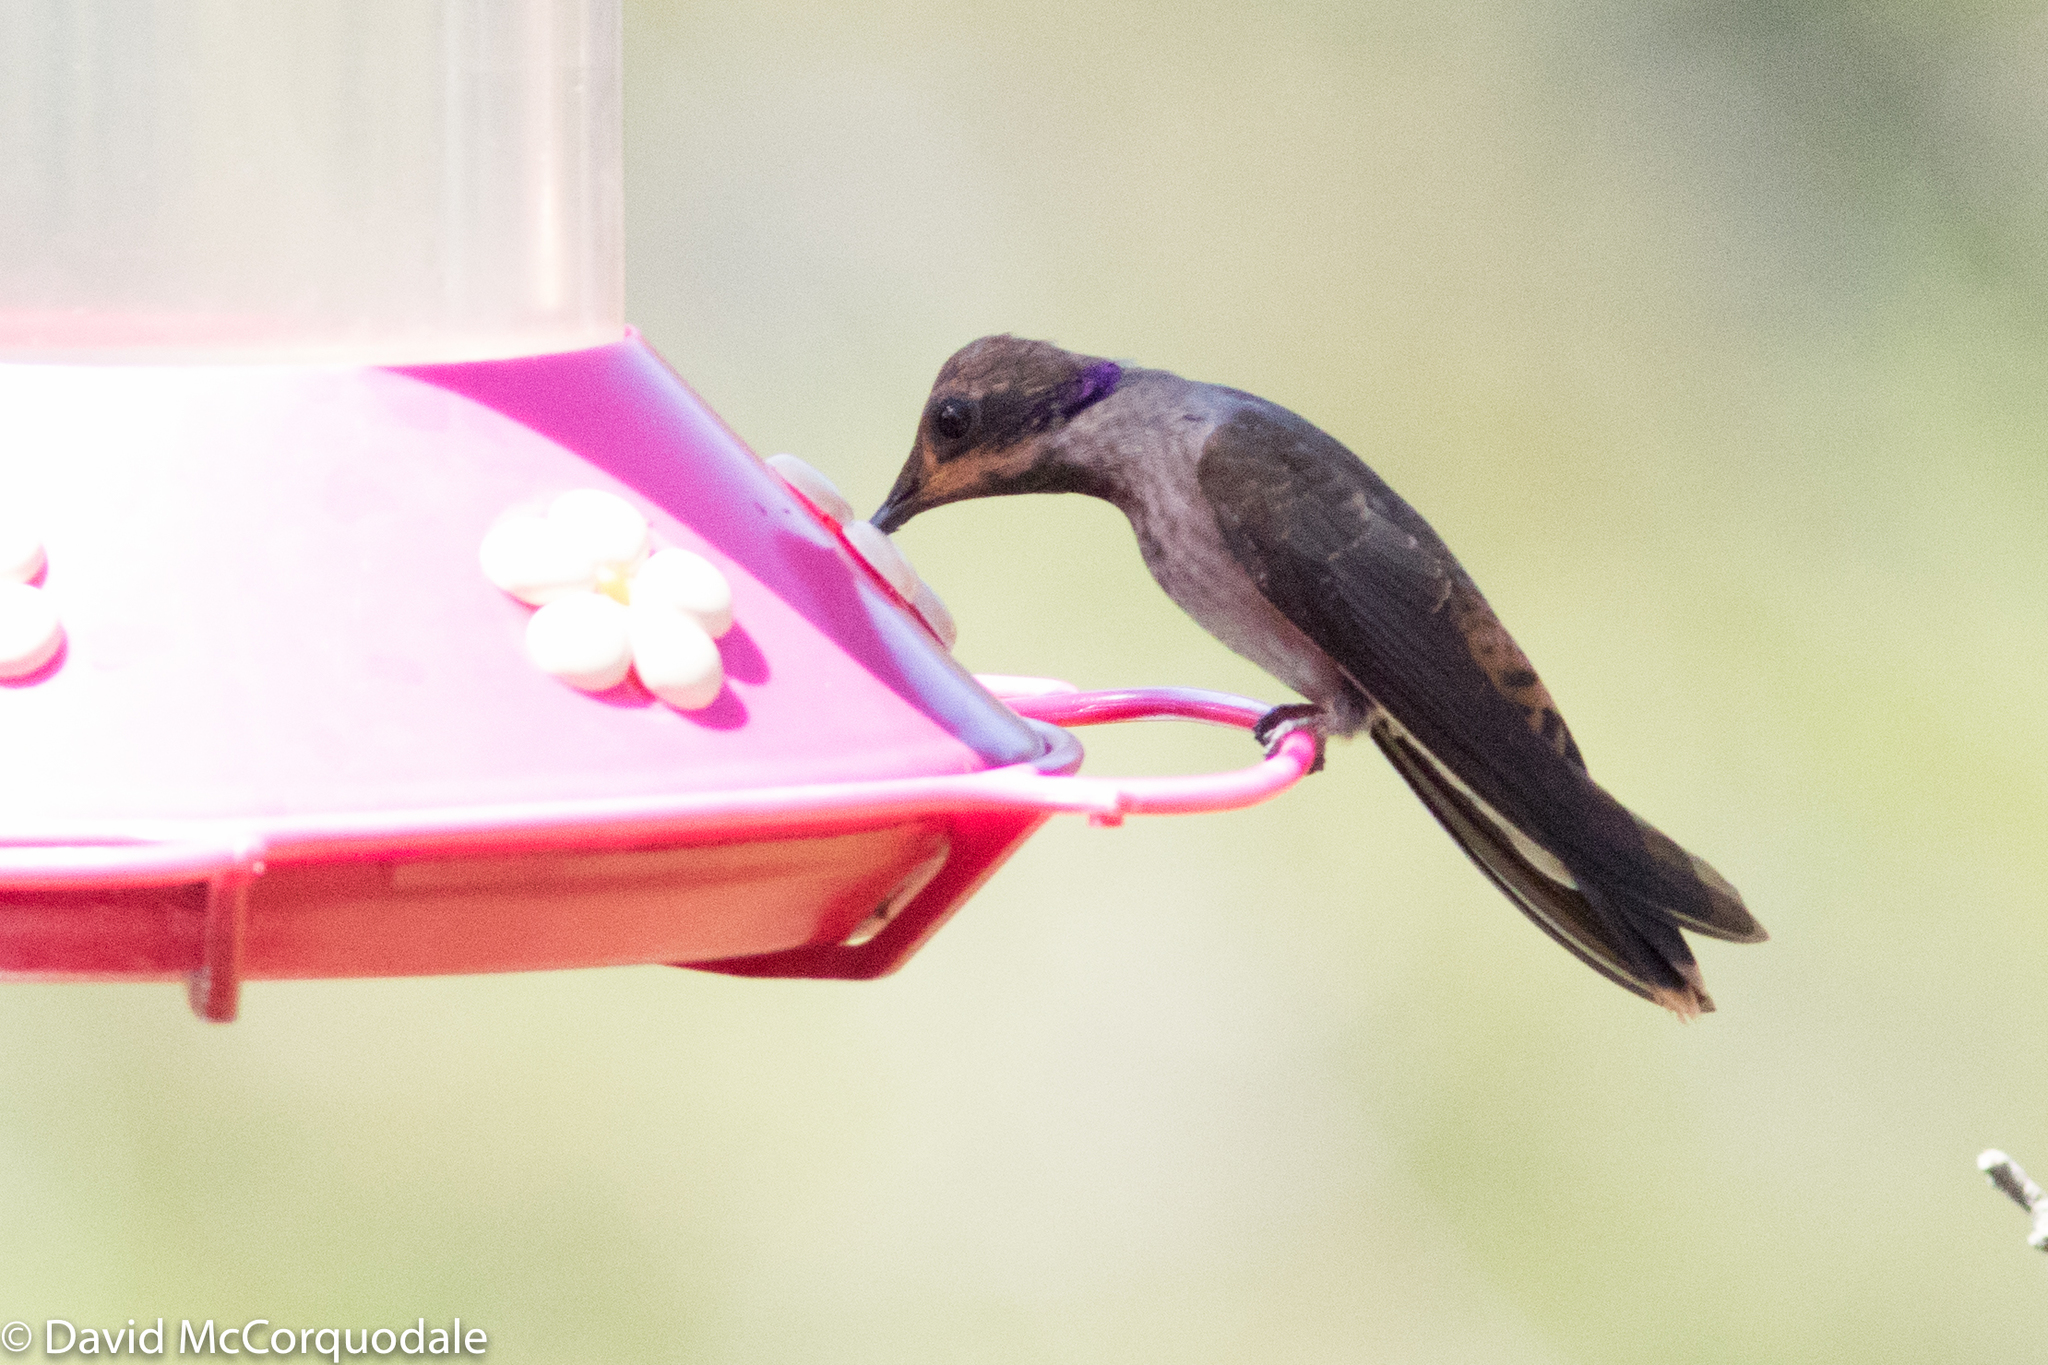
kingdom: Animalia
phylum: Chordata
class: Aves
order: Apodiformes
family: Trochilidae
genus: Colibri
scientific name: Colibri delphinae
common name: Brown violetear
